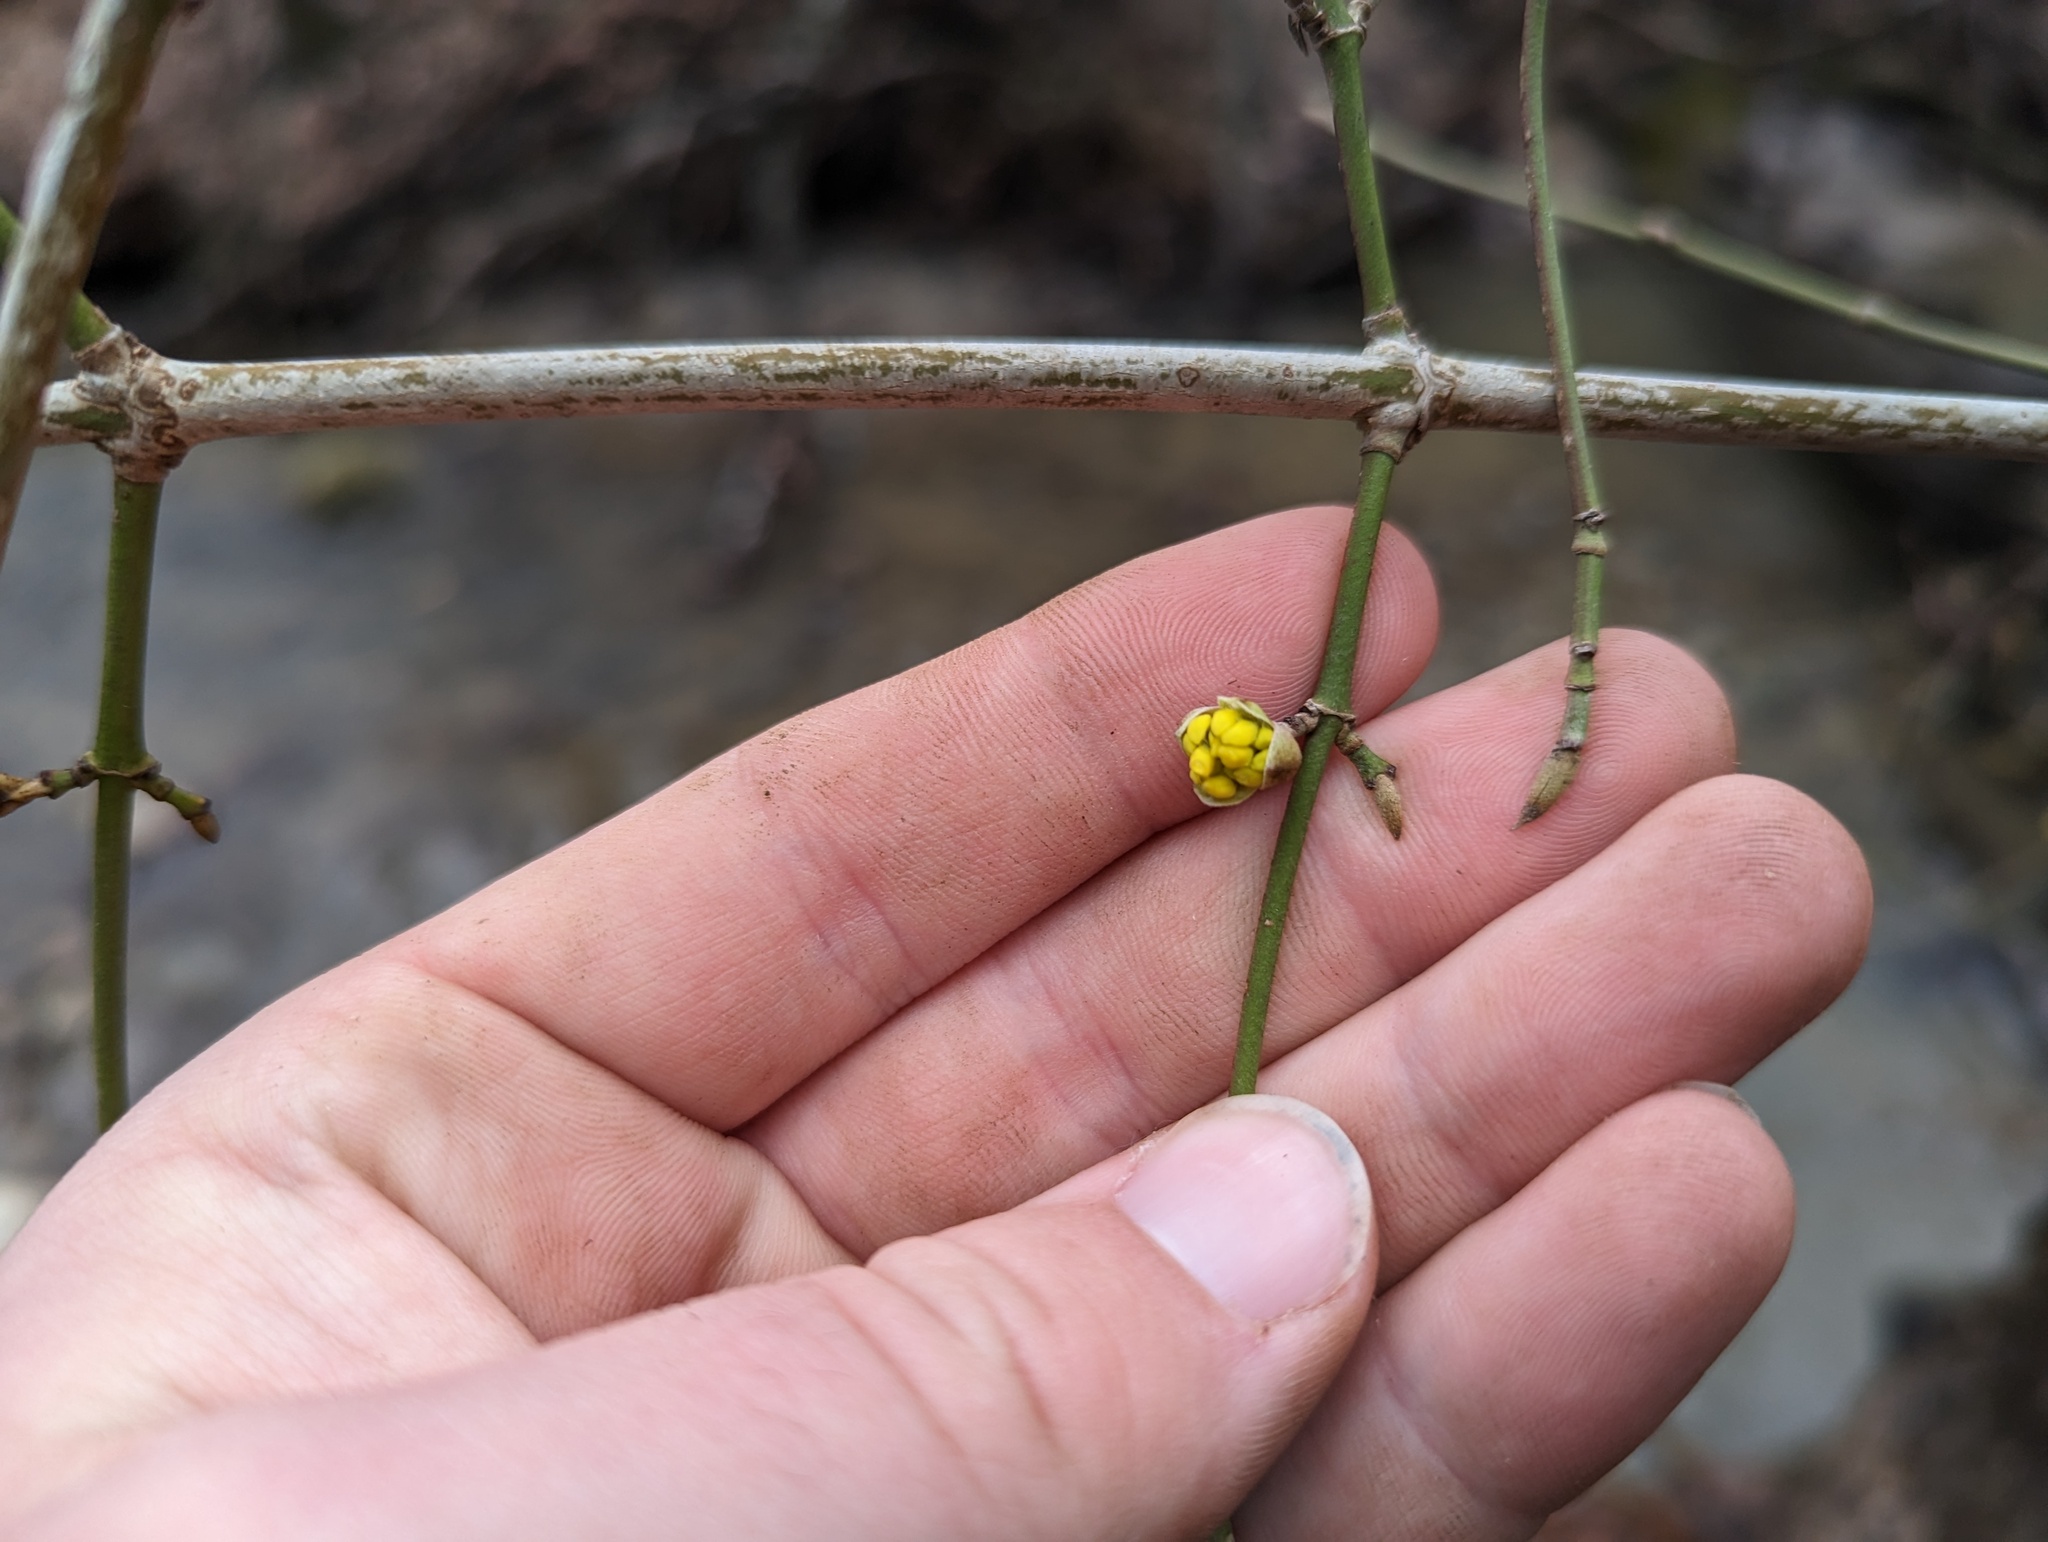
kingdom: Plantae
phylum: Tracheophyta
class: Magnoliopsida
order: Cornales
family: Cornaceae
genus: Cornus
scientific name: Cornus mas
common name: Cornelian-cherry
